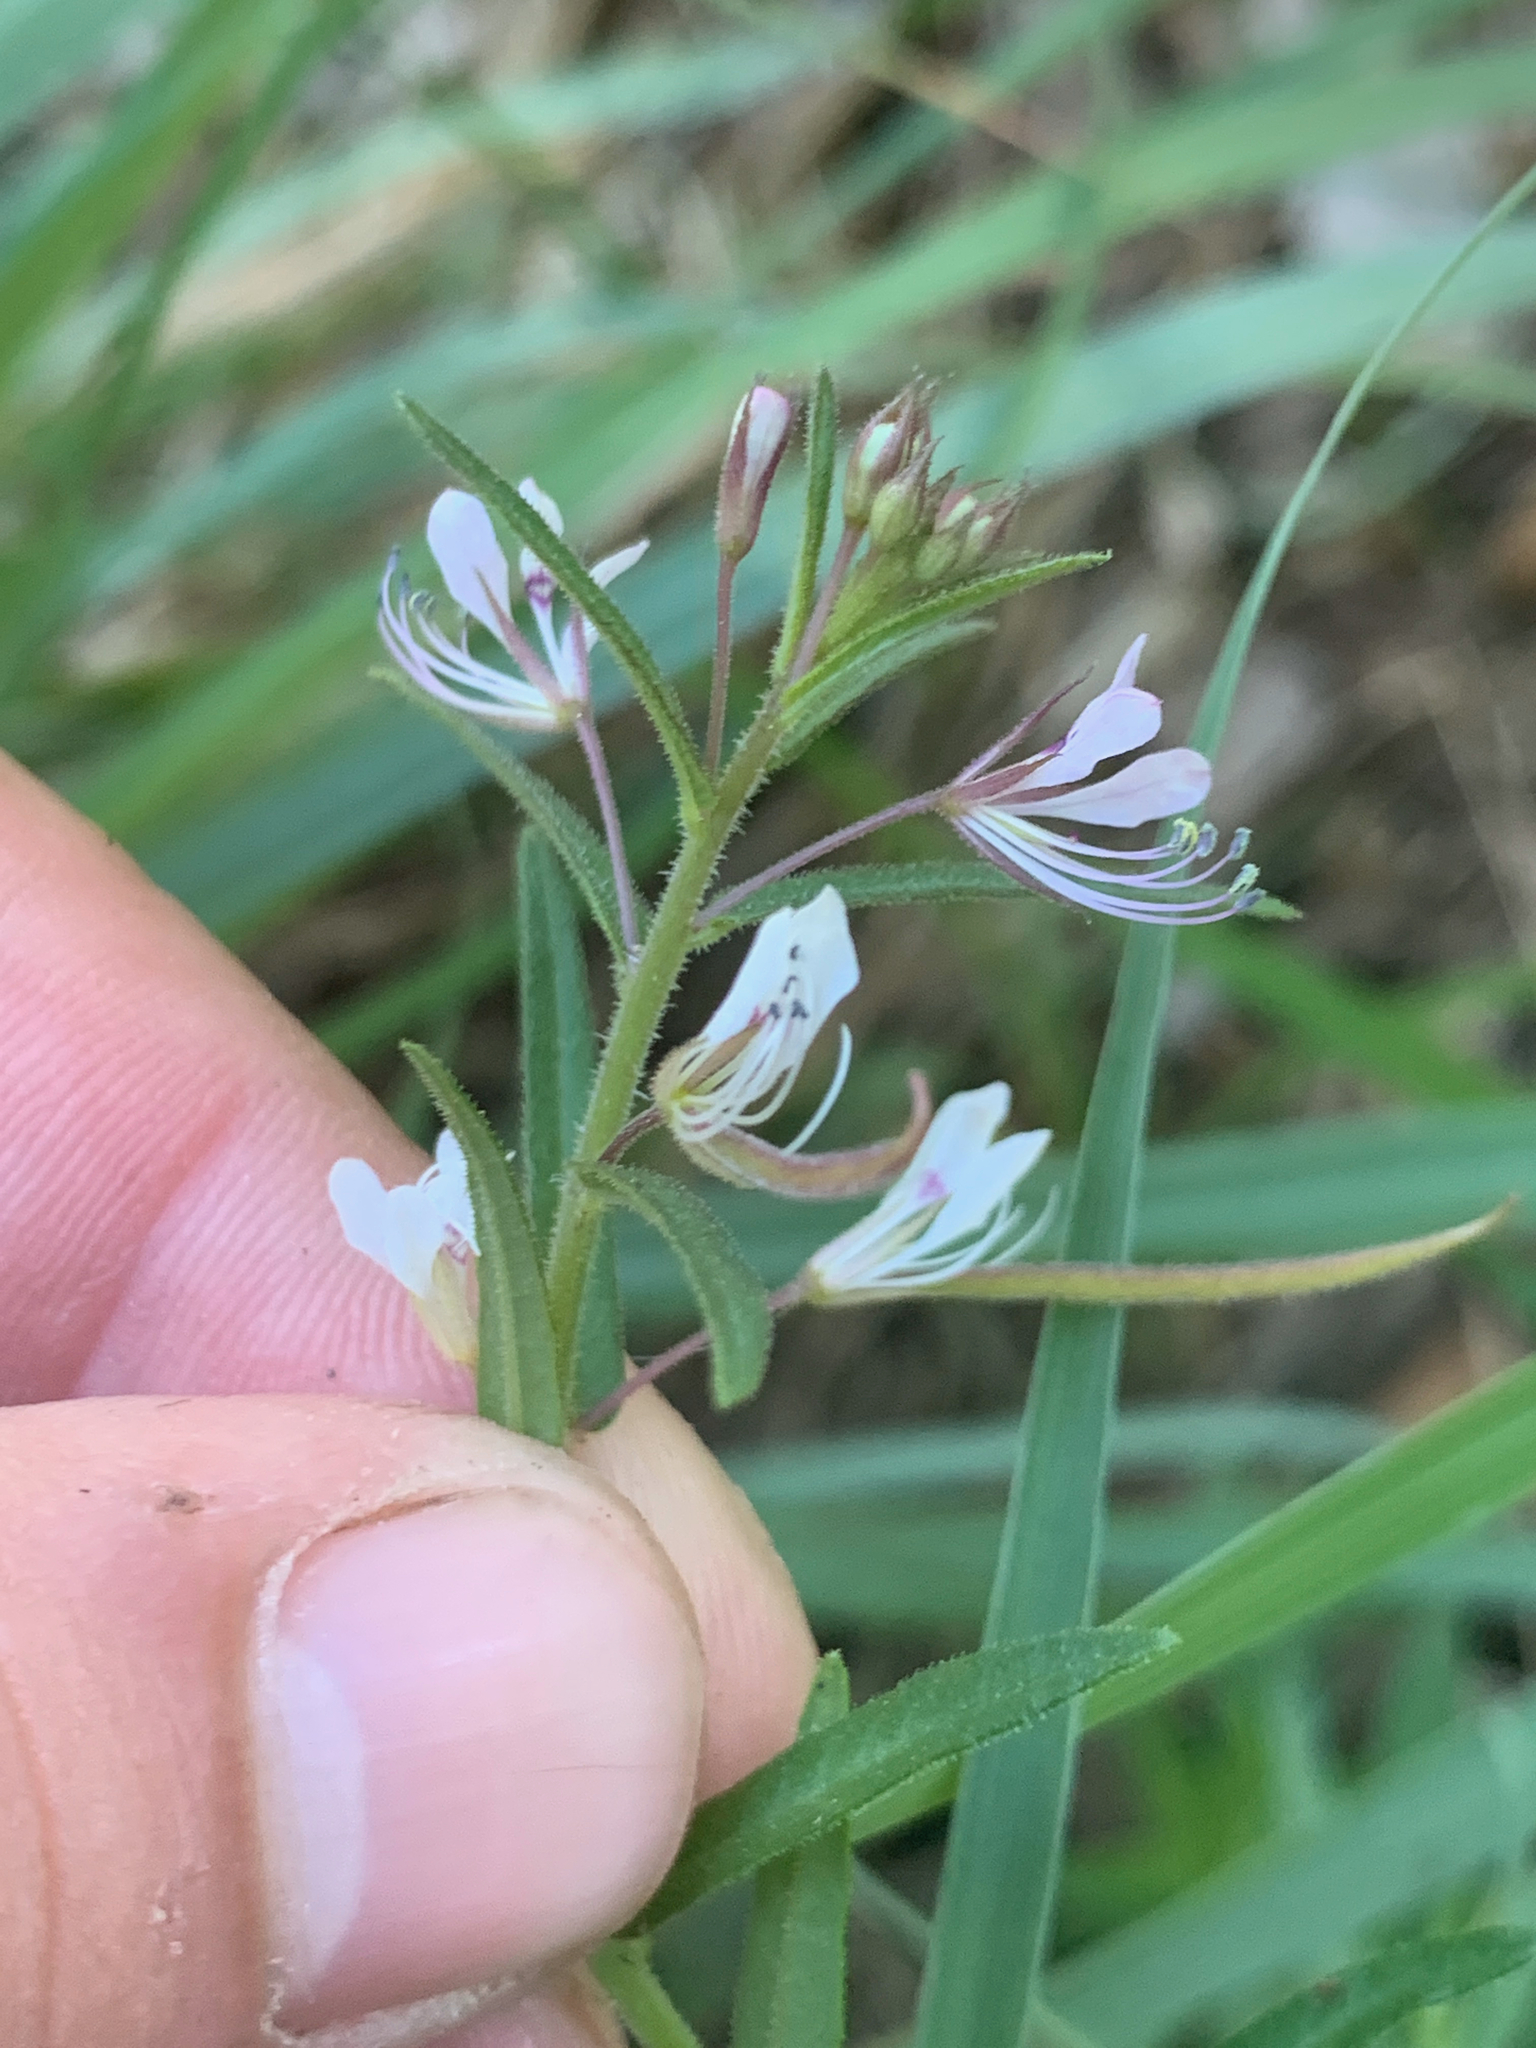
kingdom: Plantae
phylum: Tracheophyta
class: Magnoliopsida
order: Brassicales
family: Cleomaceae
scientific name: Cleomaceae
